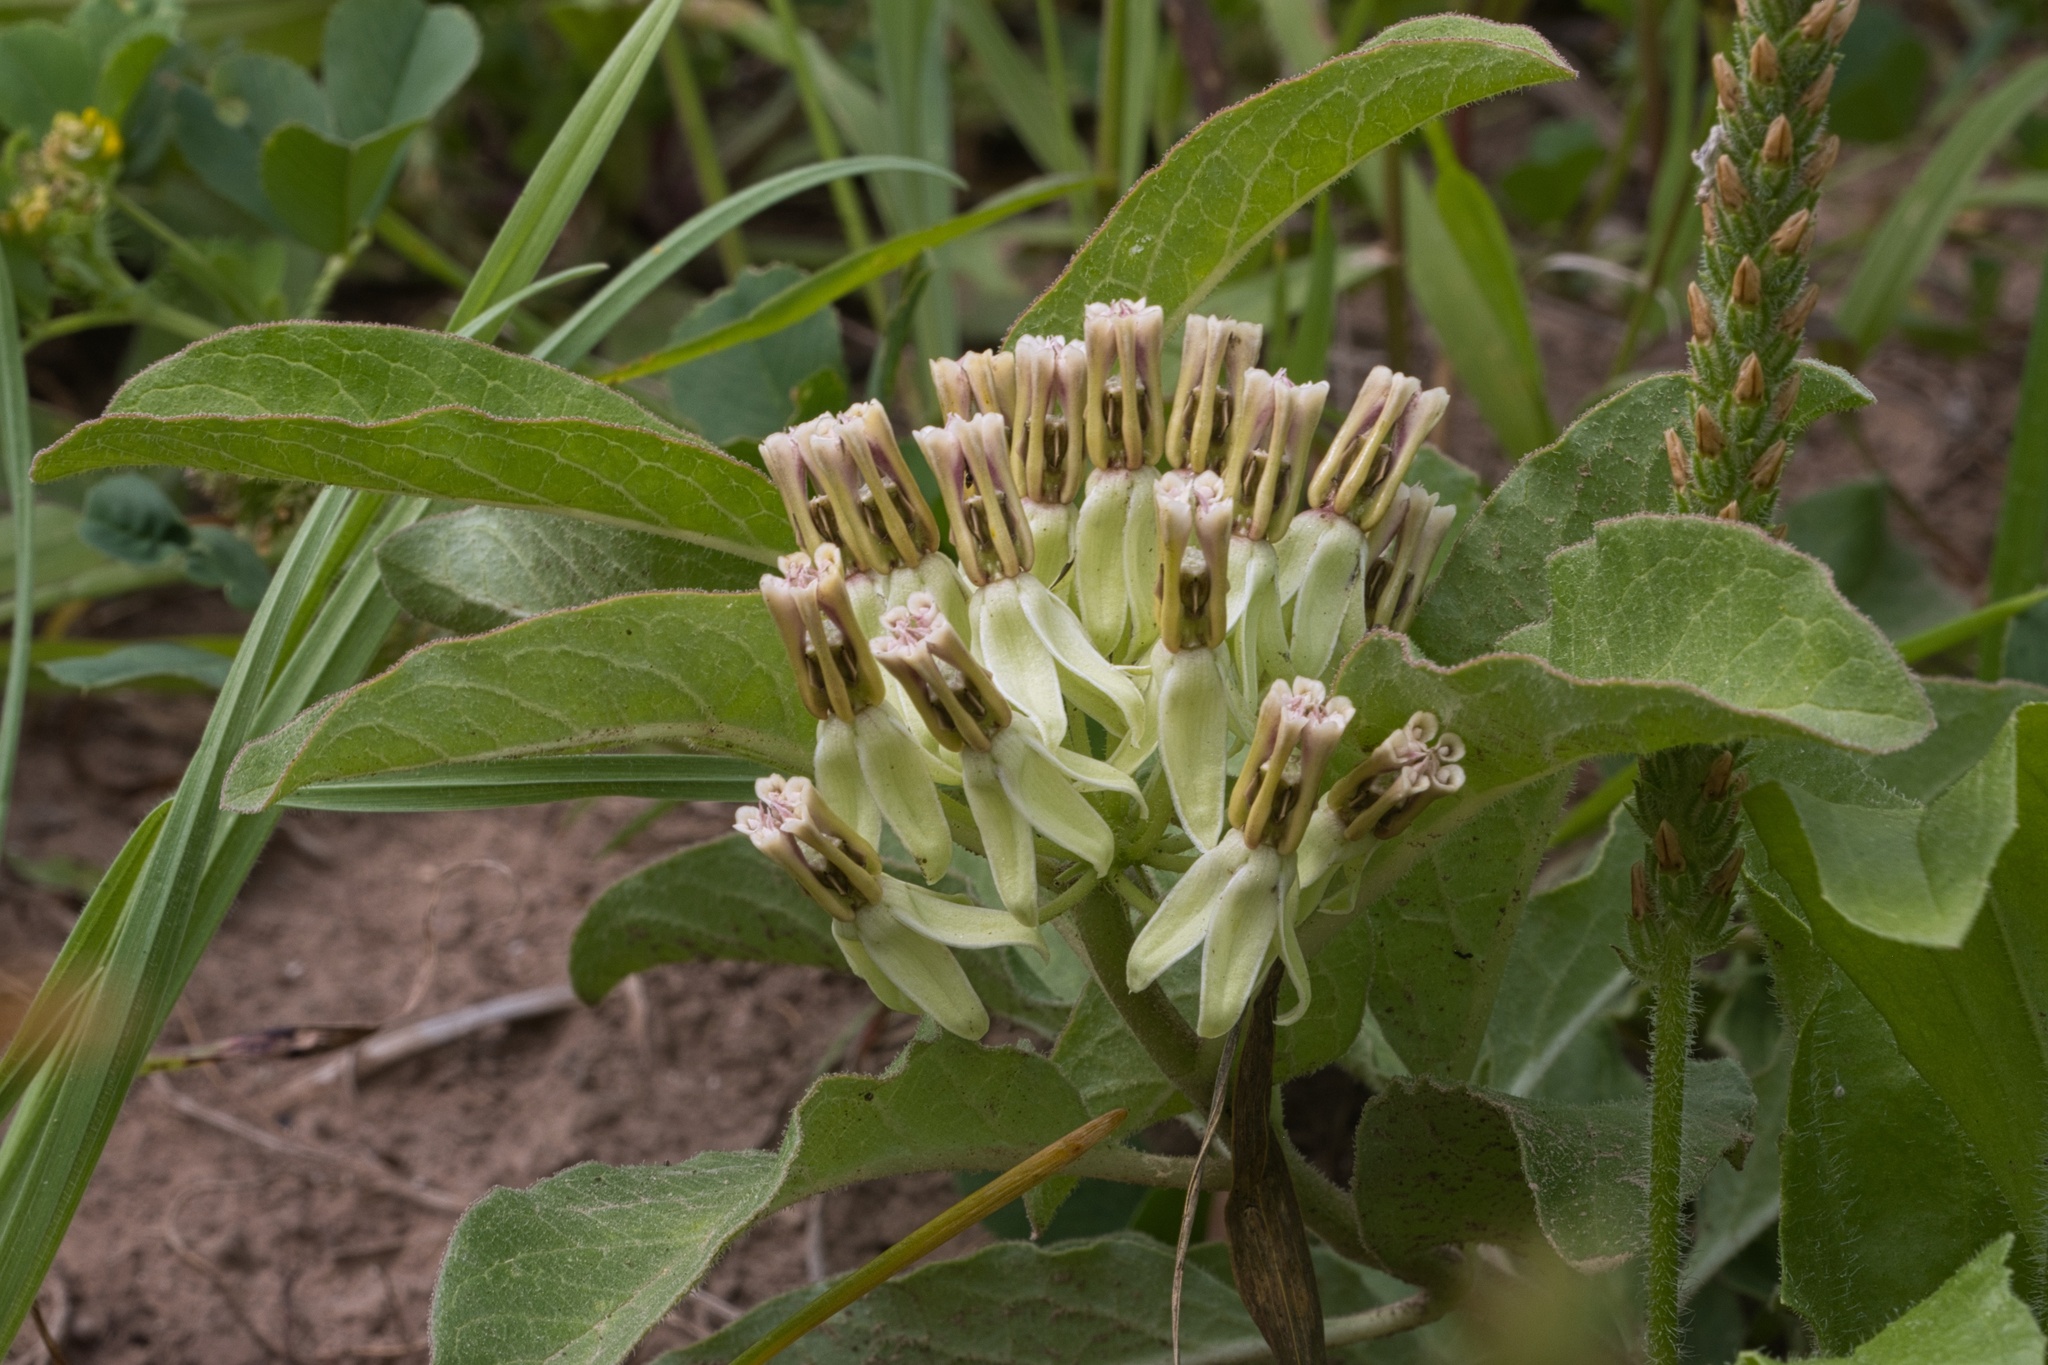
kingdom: Plantae
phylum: Tracheophyta
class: Magnoliopsida
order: Gentianales
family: Apocynaceae
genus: Asclepias
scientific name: Asclepias oenotheroides
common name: Zizotes milkweed
